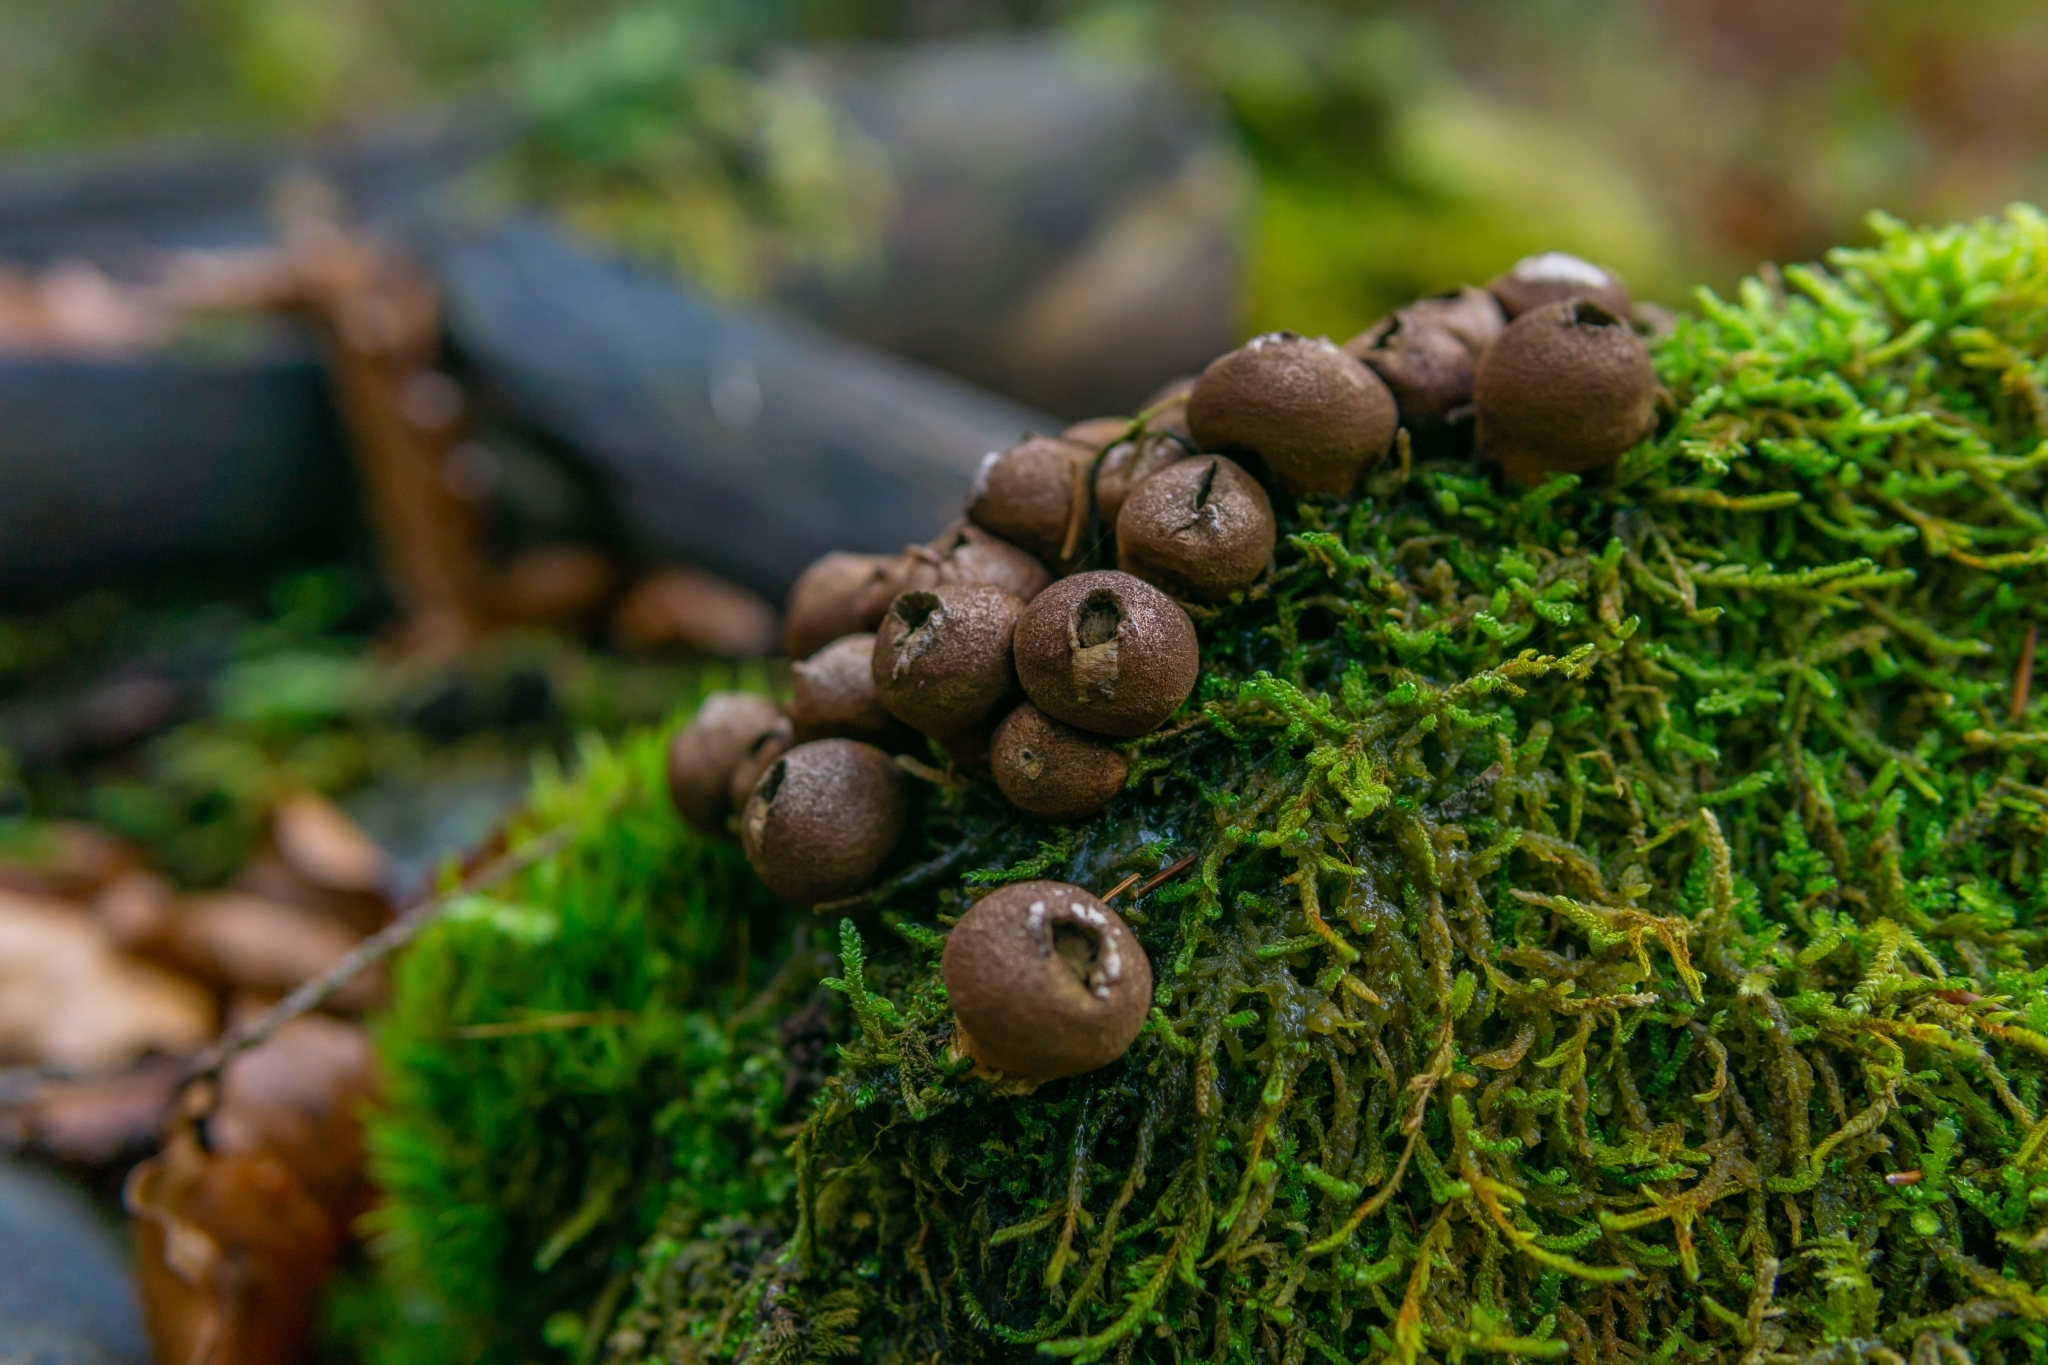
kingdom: Fungi
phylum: Basidiomycota
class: Agaricomycetes
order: Agaricales
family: Lycoperdaceae
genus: Apioperdon
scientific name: Apioperdon pyriforme
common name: Pear-shaped puffball
